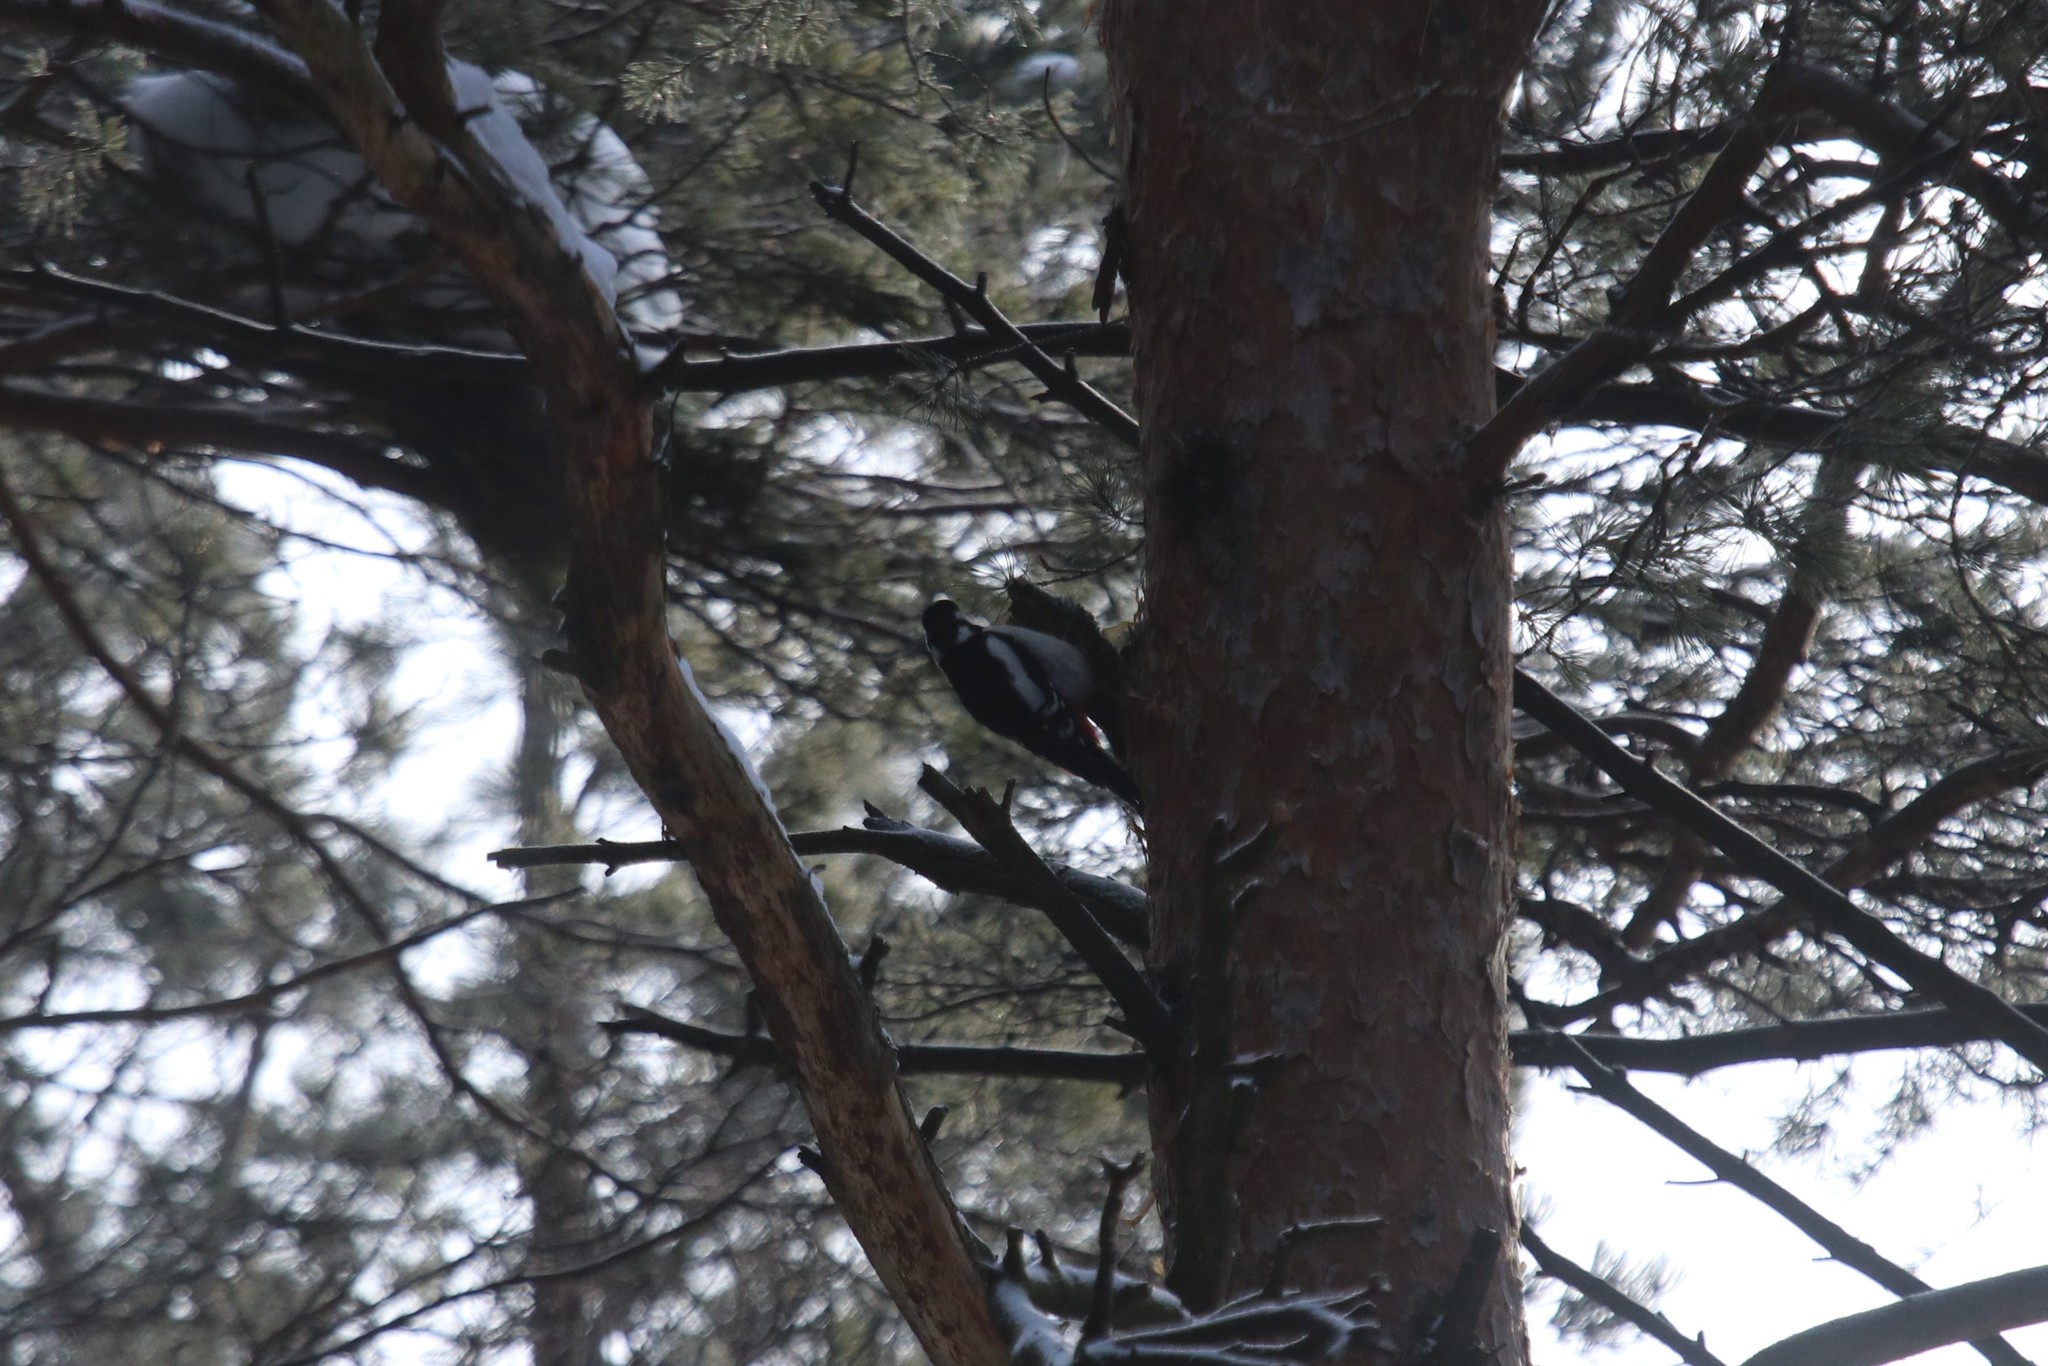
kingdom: Animalia
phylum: Chordata
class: Aves
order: Piciformes
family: Picidae
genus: Dendrocopos
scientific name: Dendrocopos major
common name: Great spotted woodpecker
